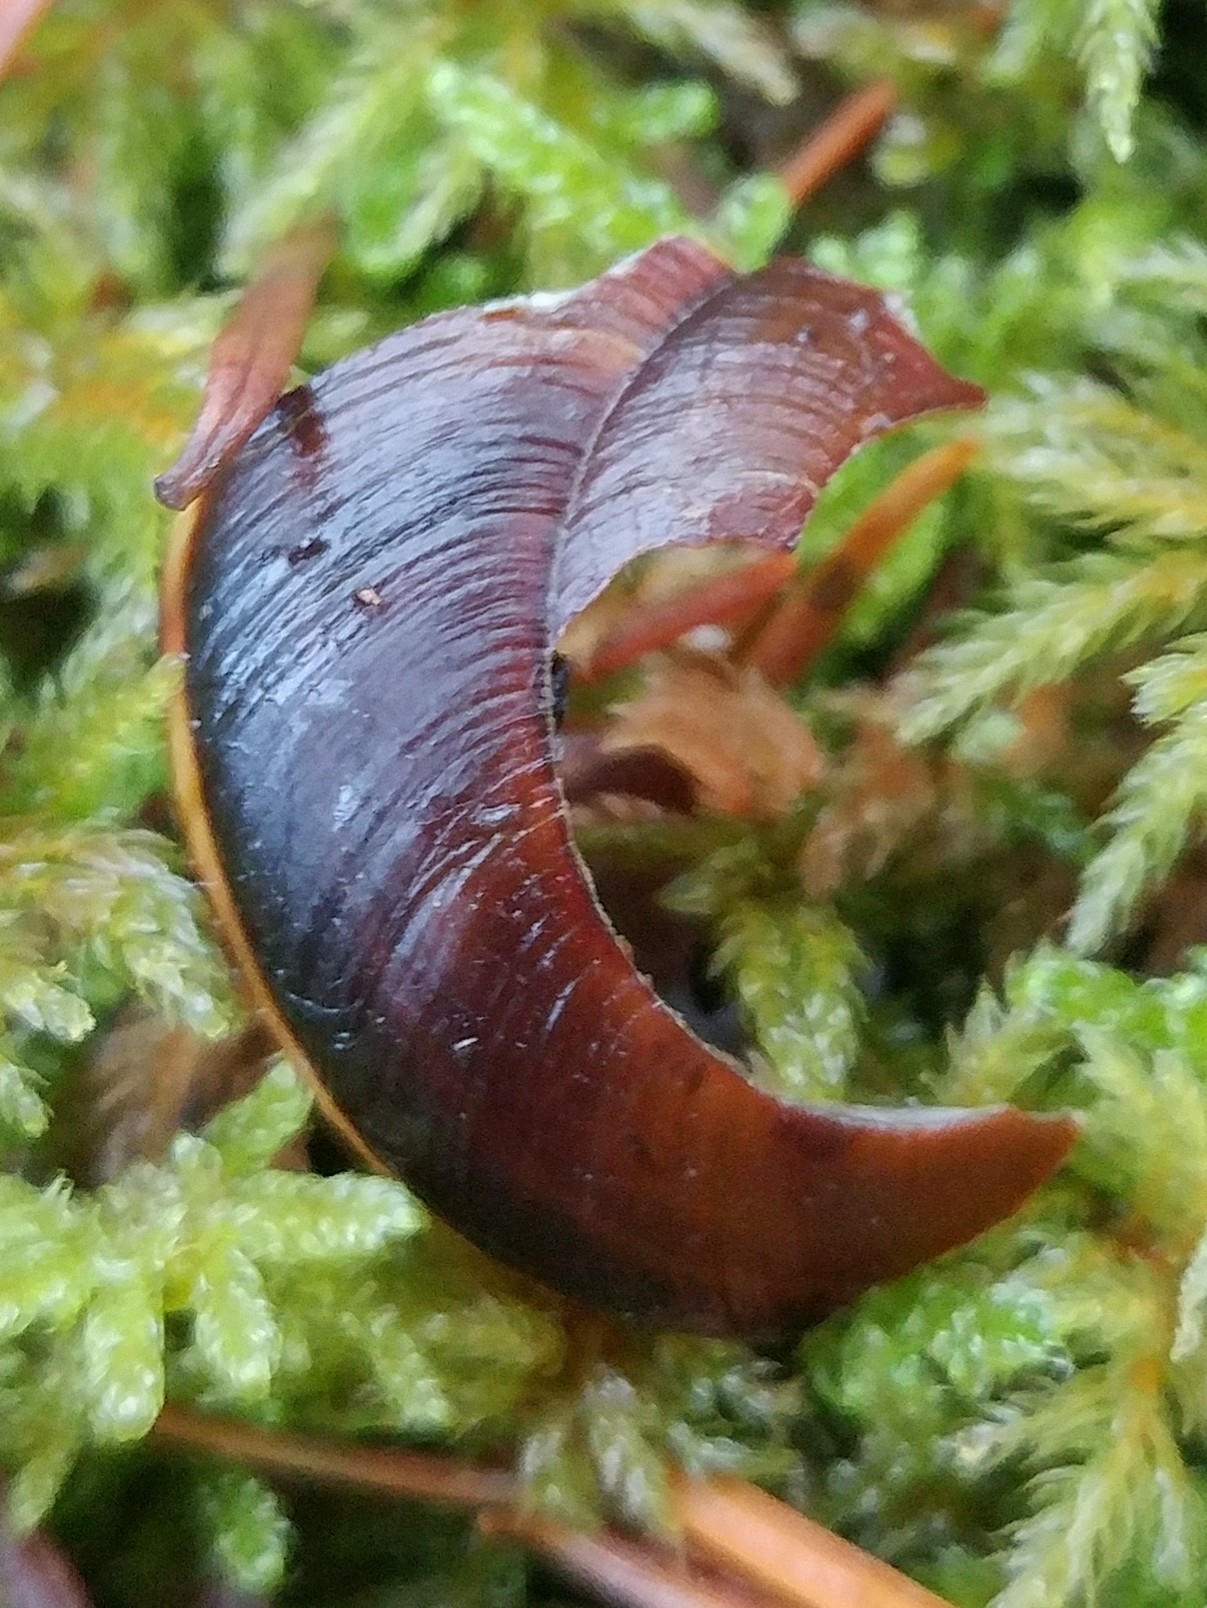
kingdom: Animalia
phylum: Mollusca
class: Gastropoda
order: Stylommatophora
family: Xanthonychidae
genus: Monadenia
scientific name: Monadenia fidelis
